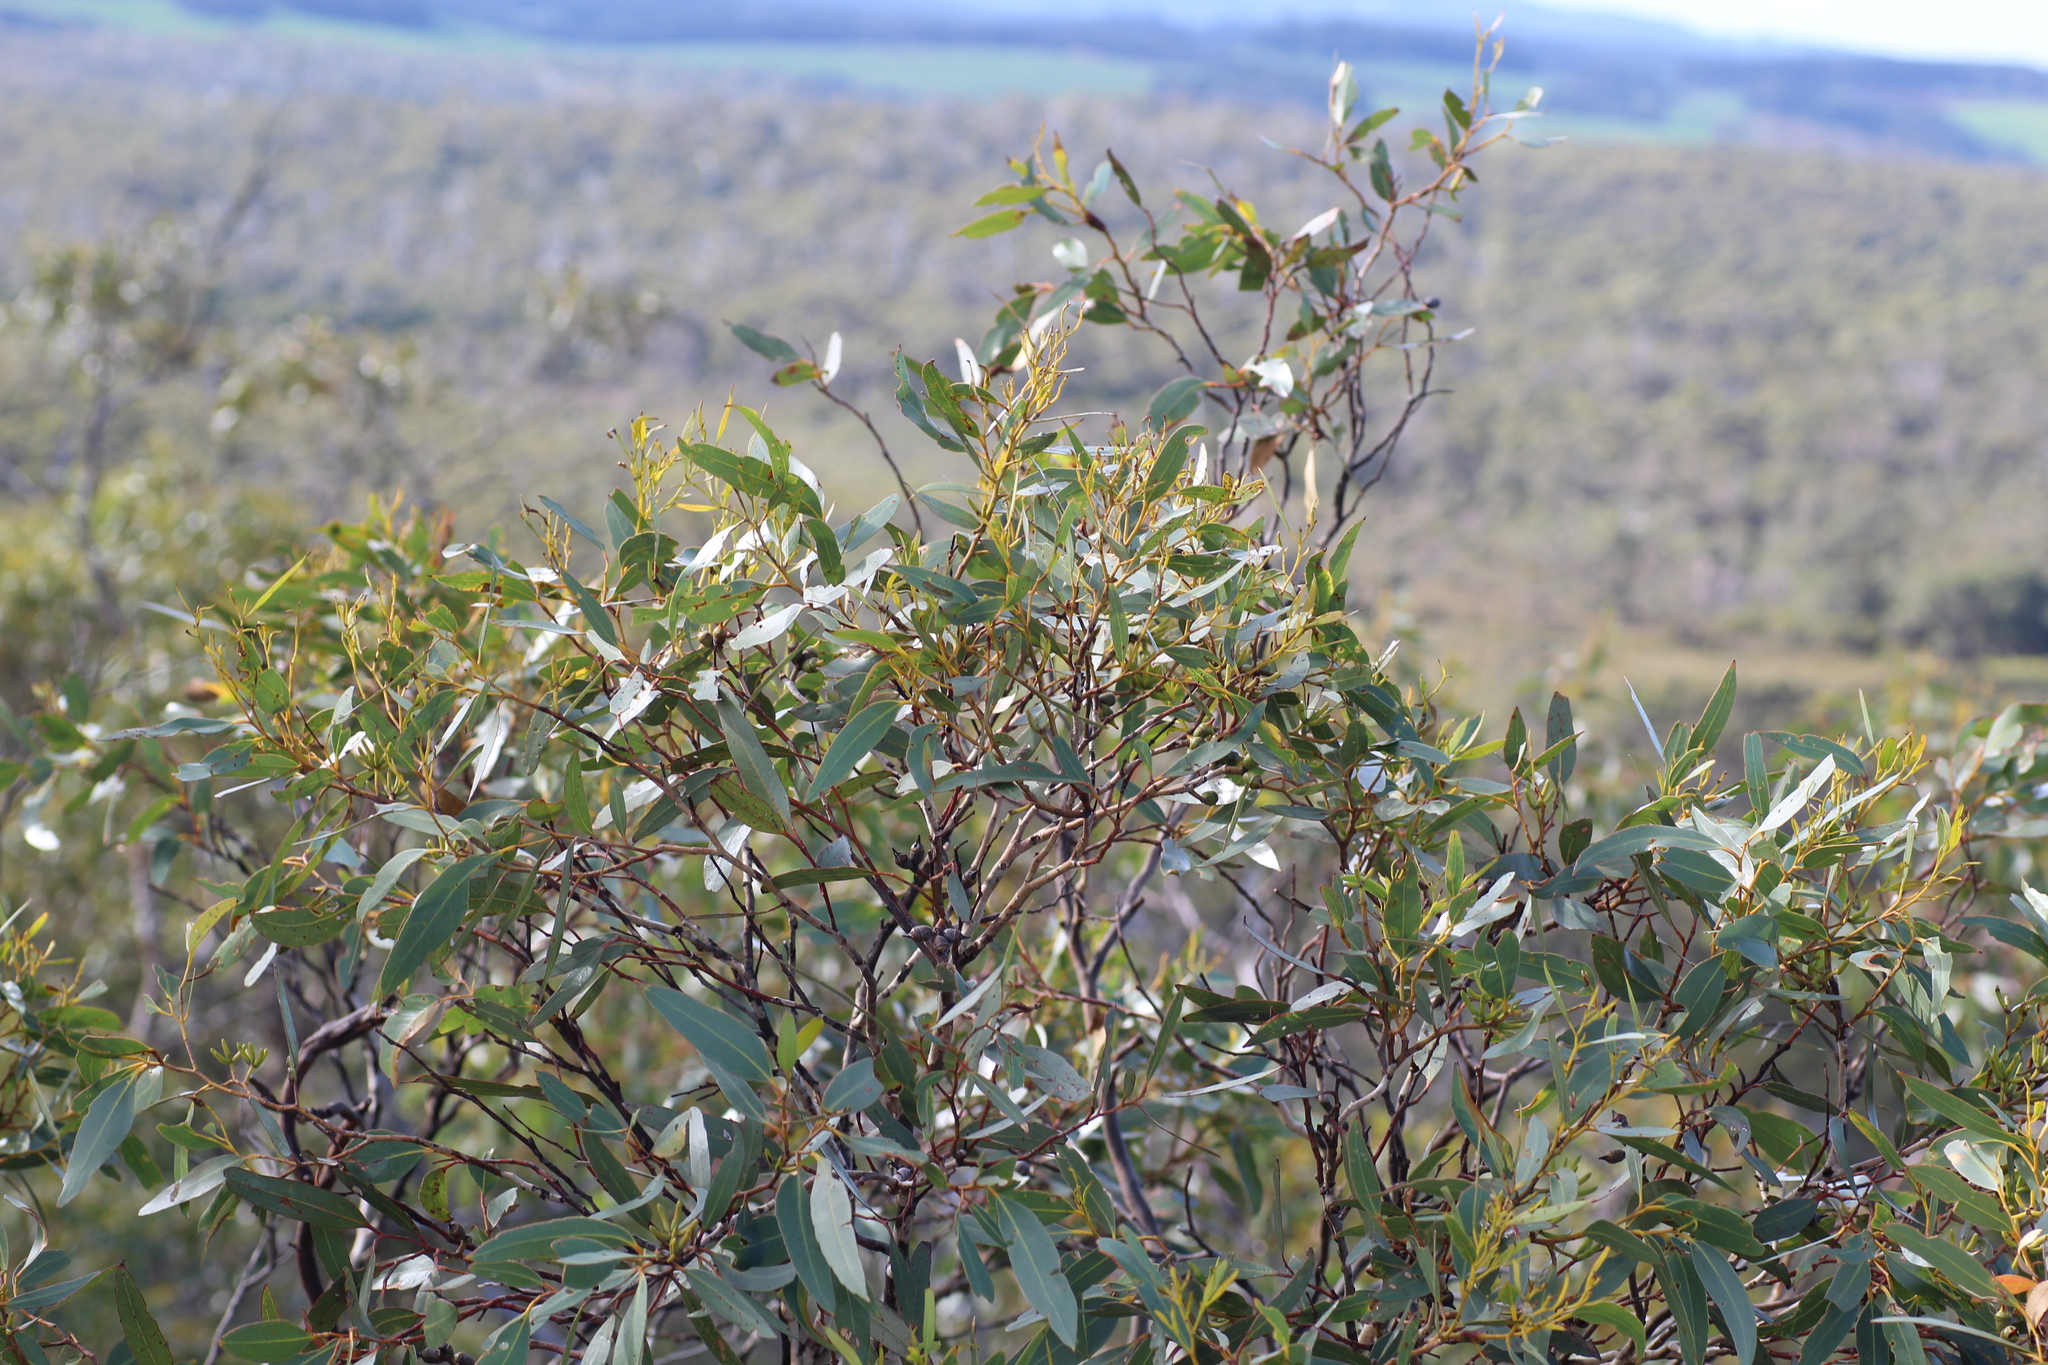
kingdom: Plantae
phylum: Tracheophyta
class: Magnoliopsida
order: Myrtales
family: Myrtaceae
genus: Eucalyptus
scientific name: Eucalyptus cornuta
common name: Yate
